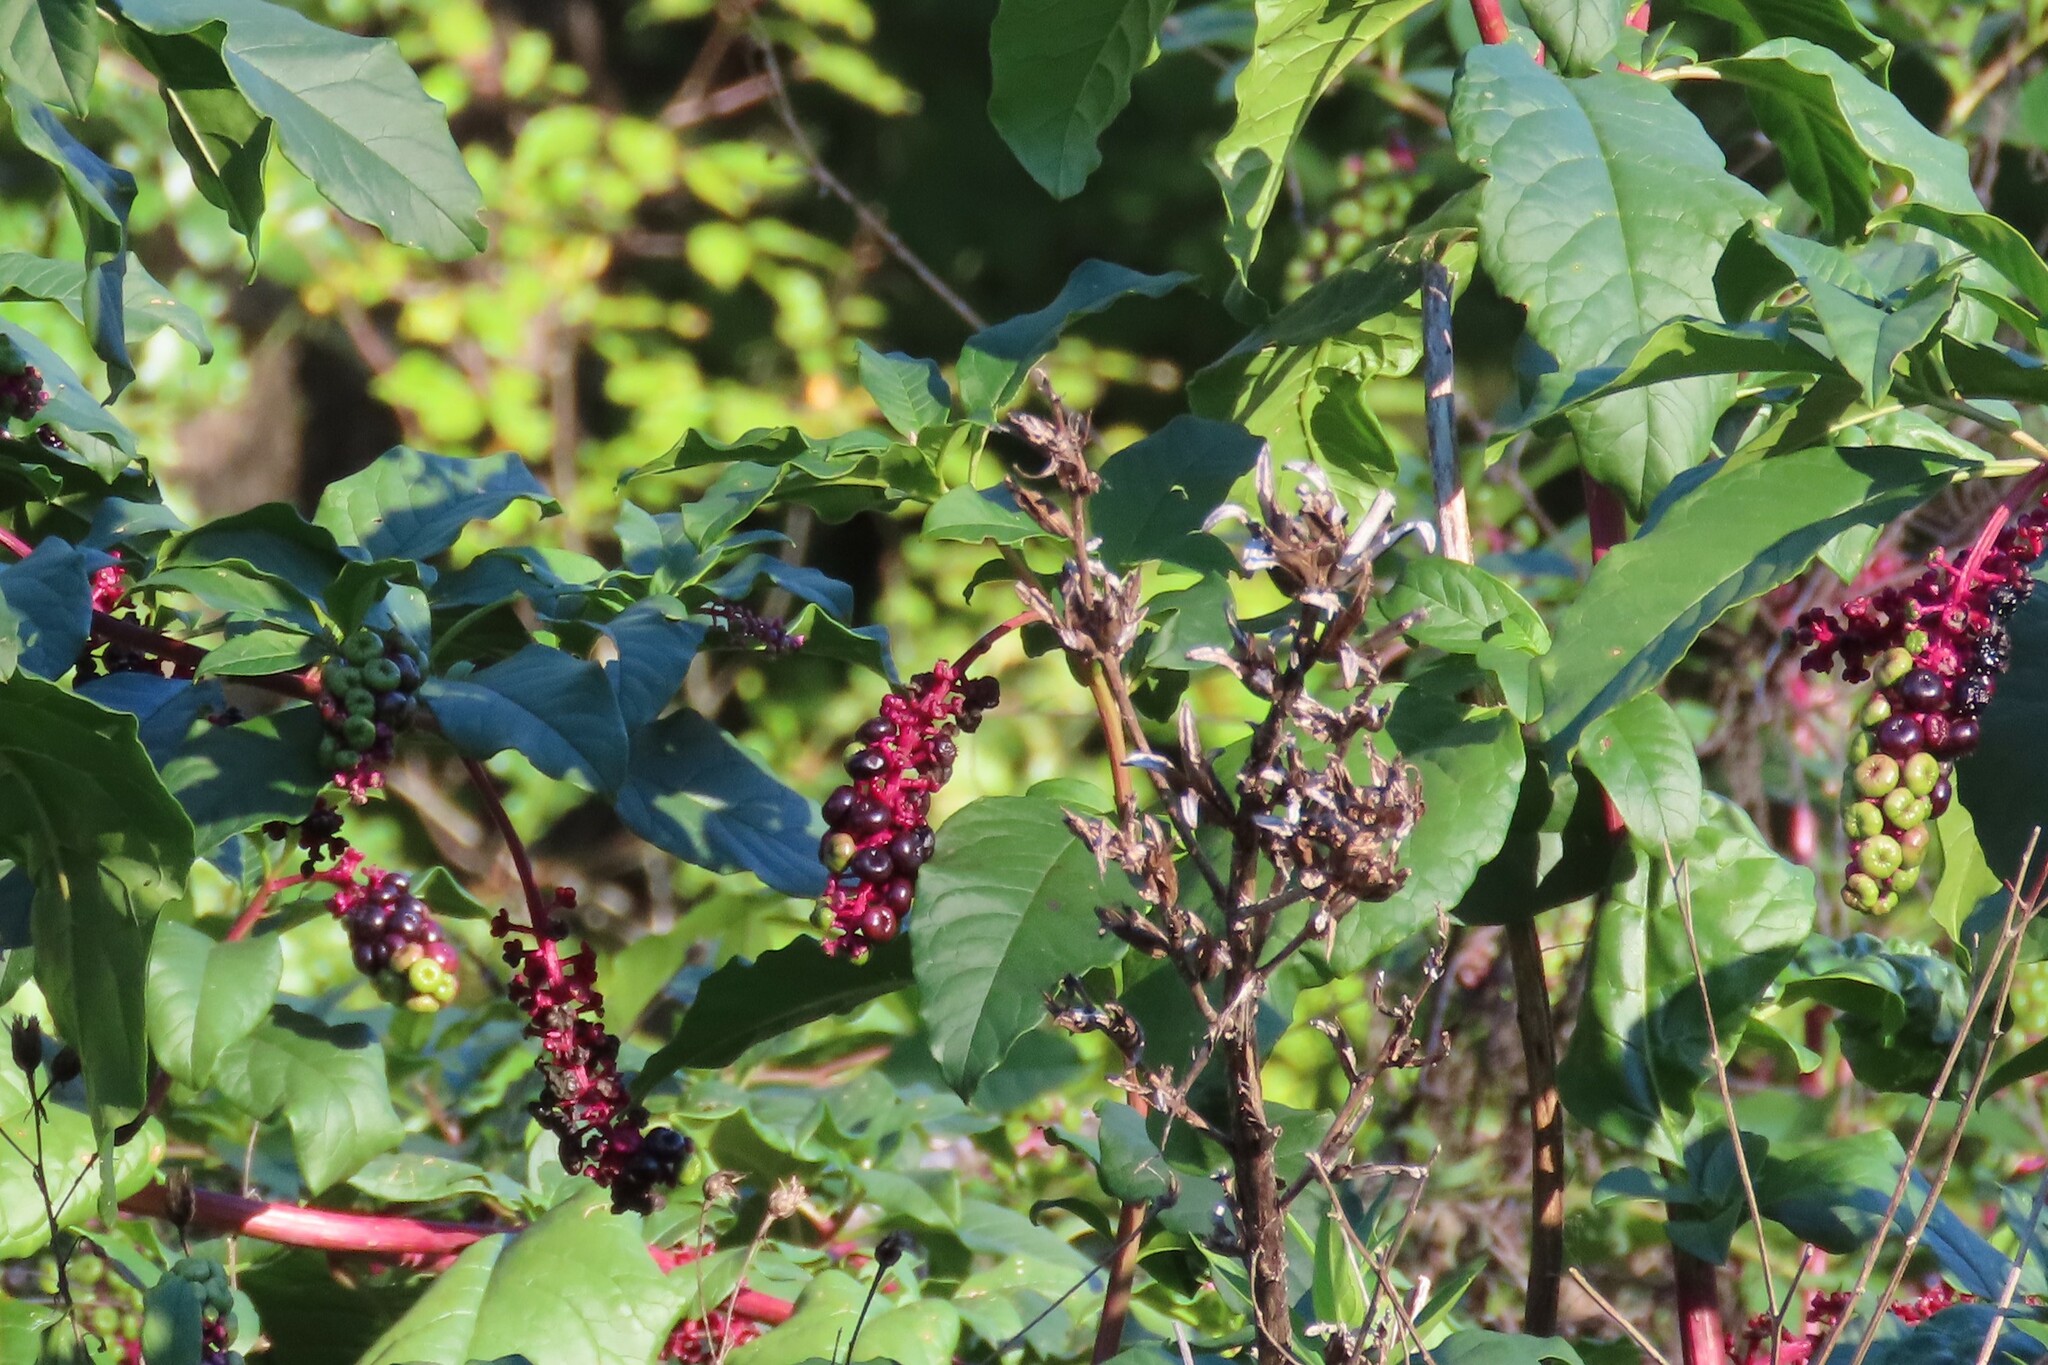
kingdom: Plantae
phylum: Tracheophyta
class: Magnoliopsida
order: Caryophyllales
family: Phytolaccaceae
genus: Phytolacca
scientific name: Phytolacca americana
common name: American pokeweed
